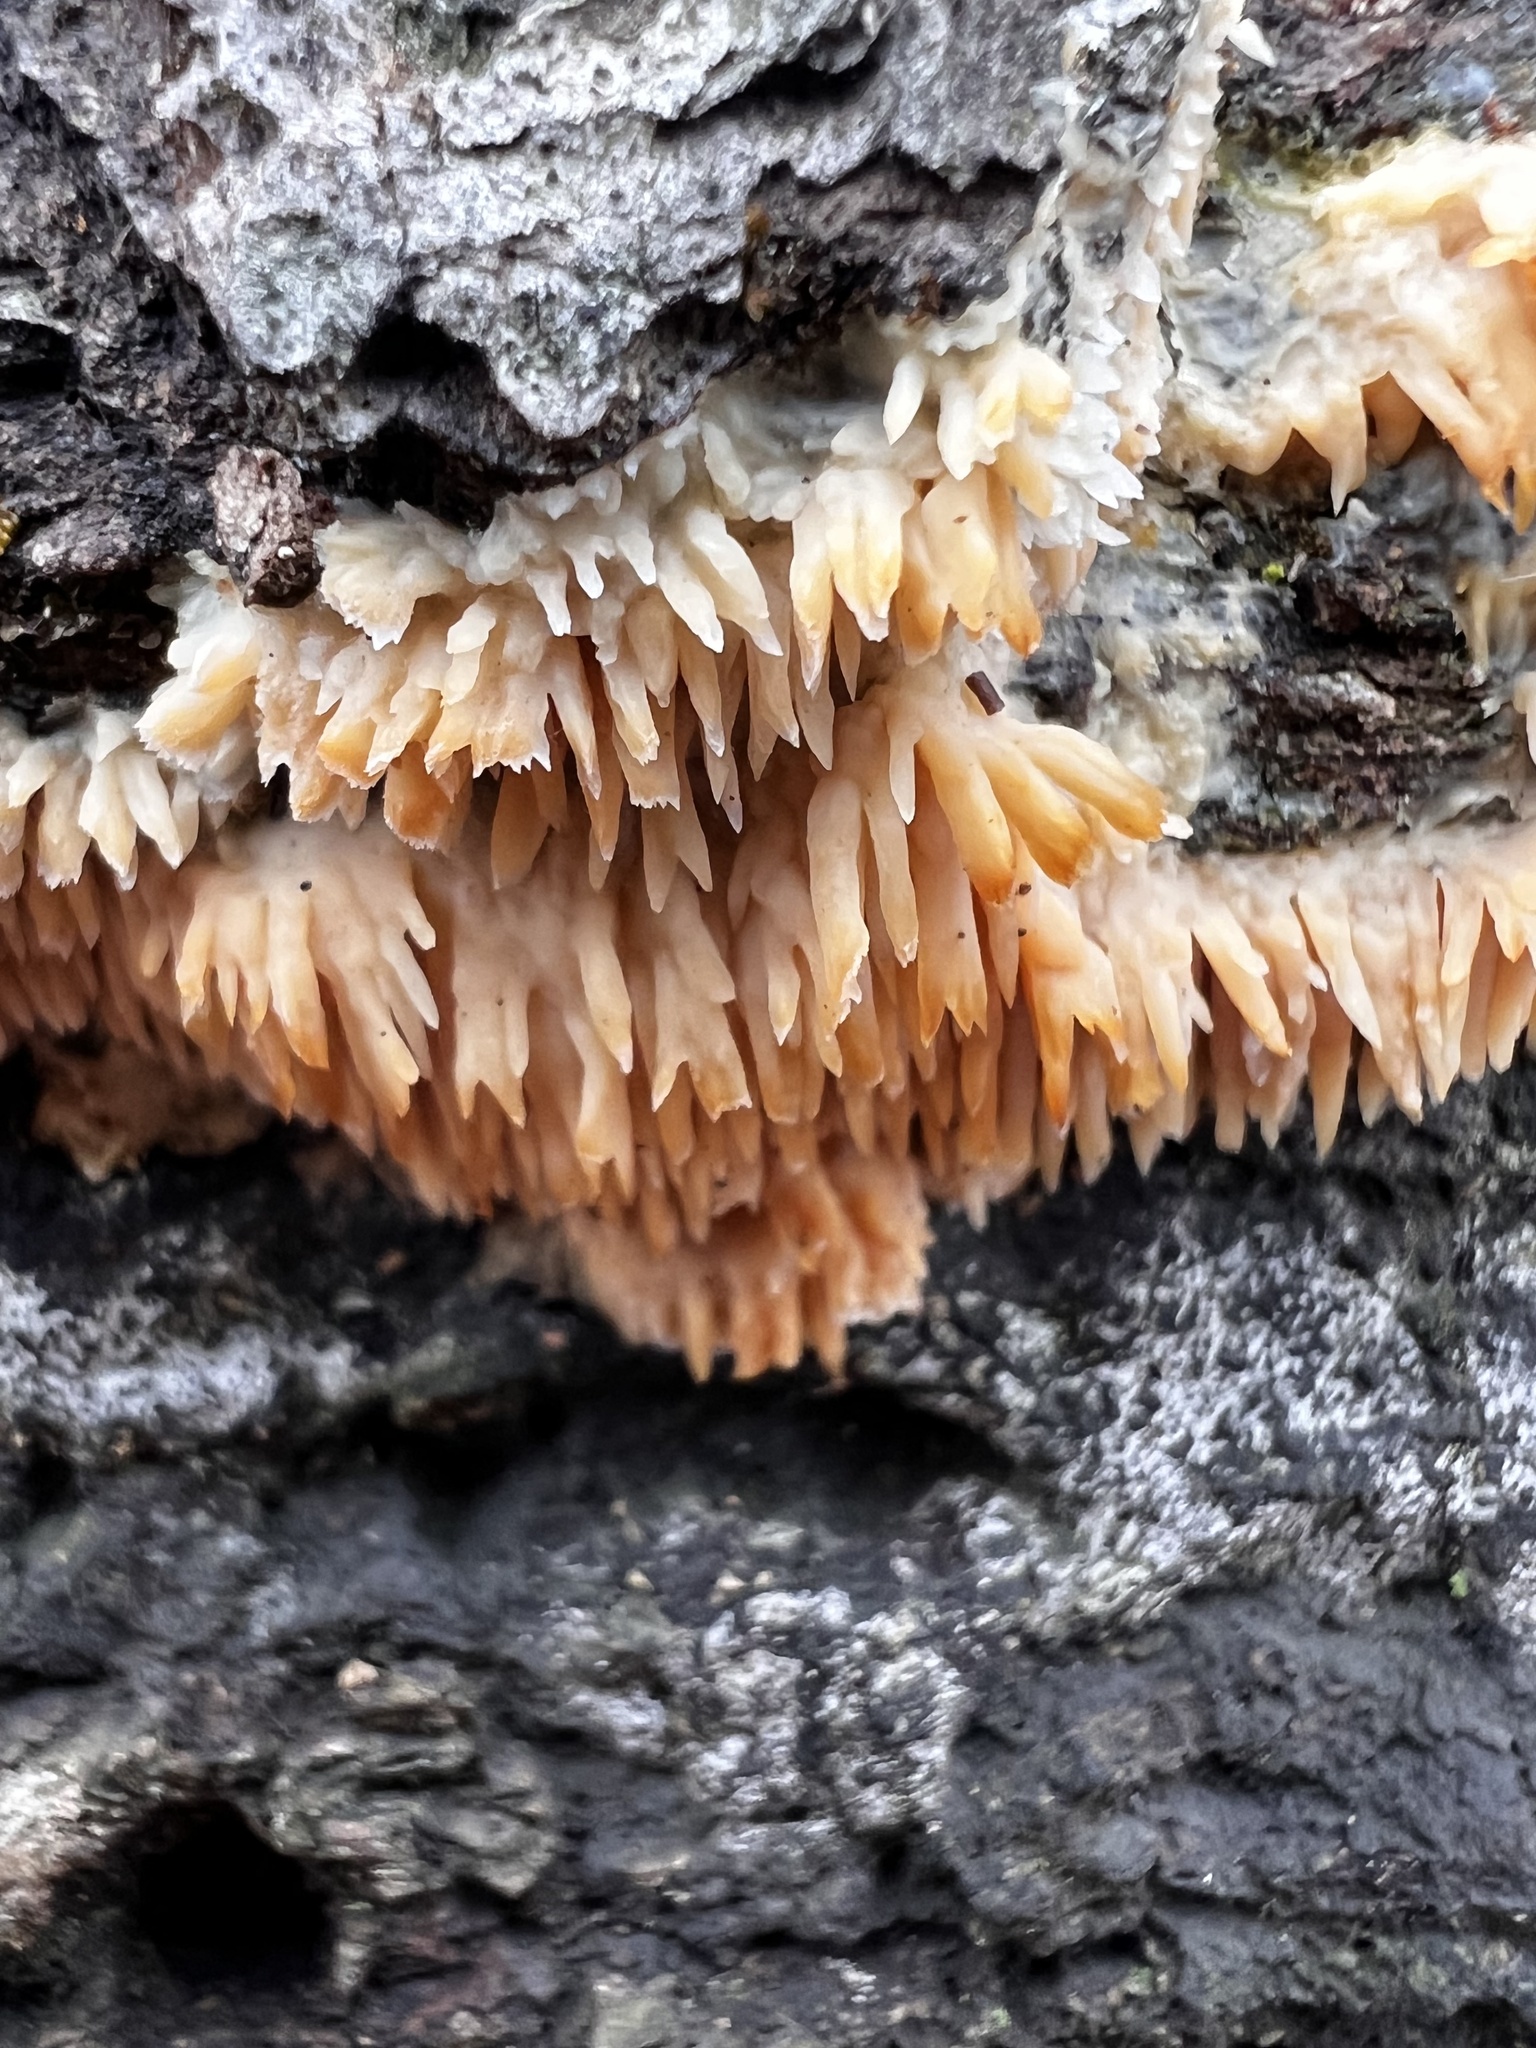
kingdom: Fungi
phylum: Basidiomycota
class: Agaricomycetes
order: Agaricales
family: Radulomycetaceae
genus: Radulomyces
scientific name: Radulomyces copelandii
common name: Asian beauty
